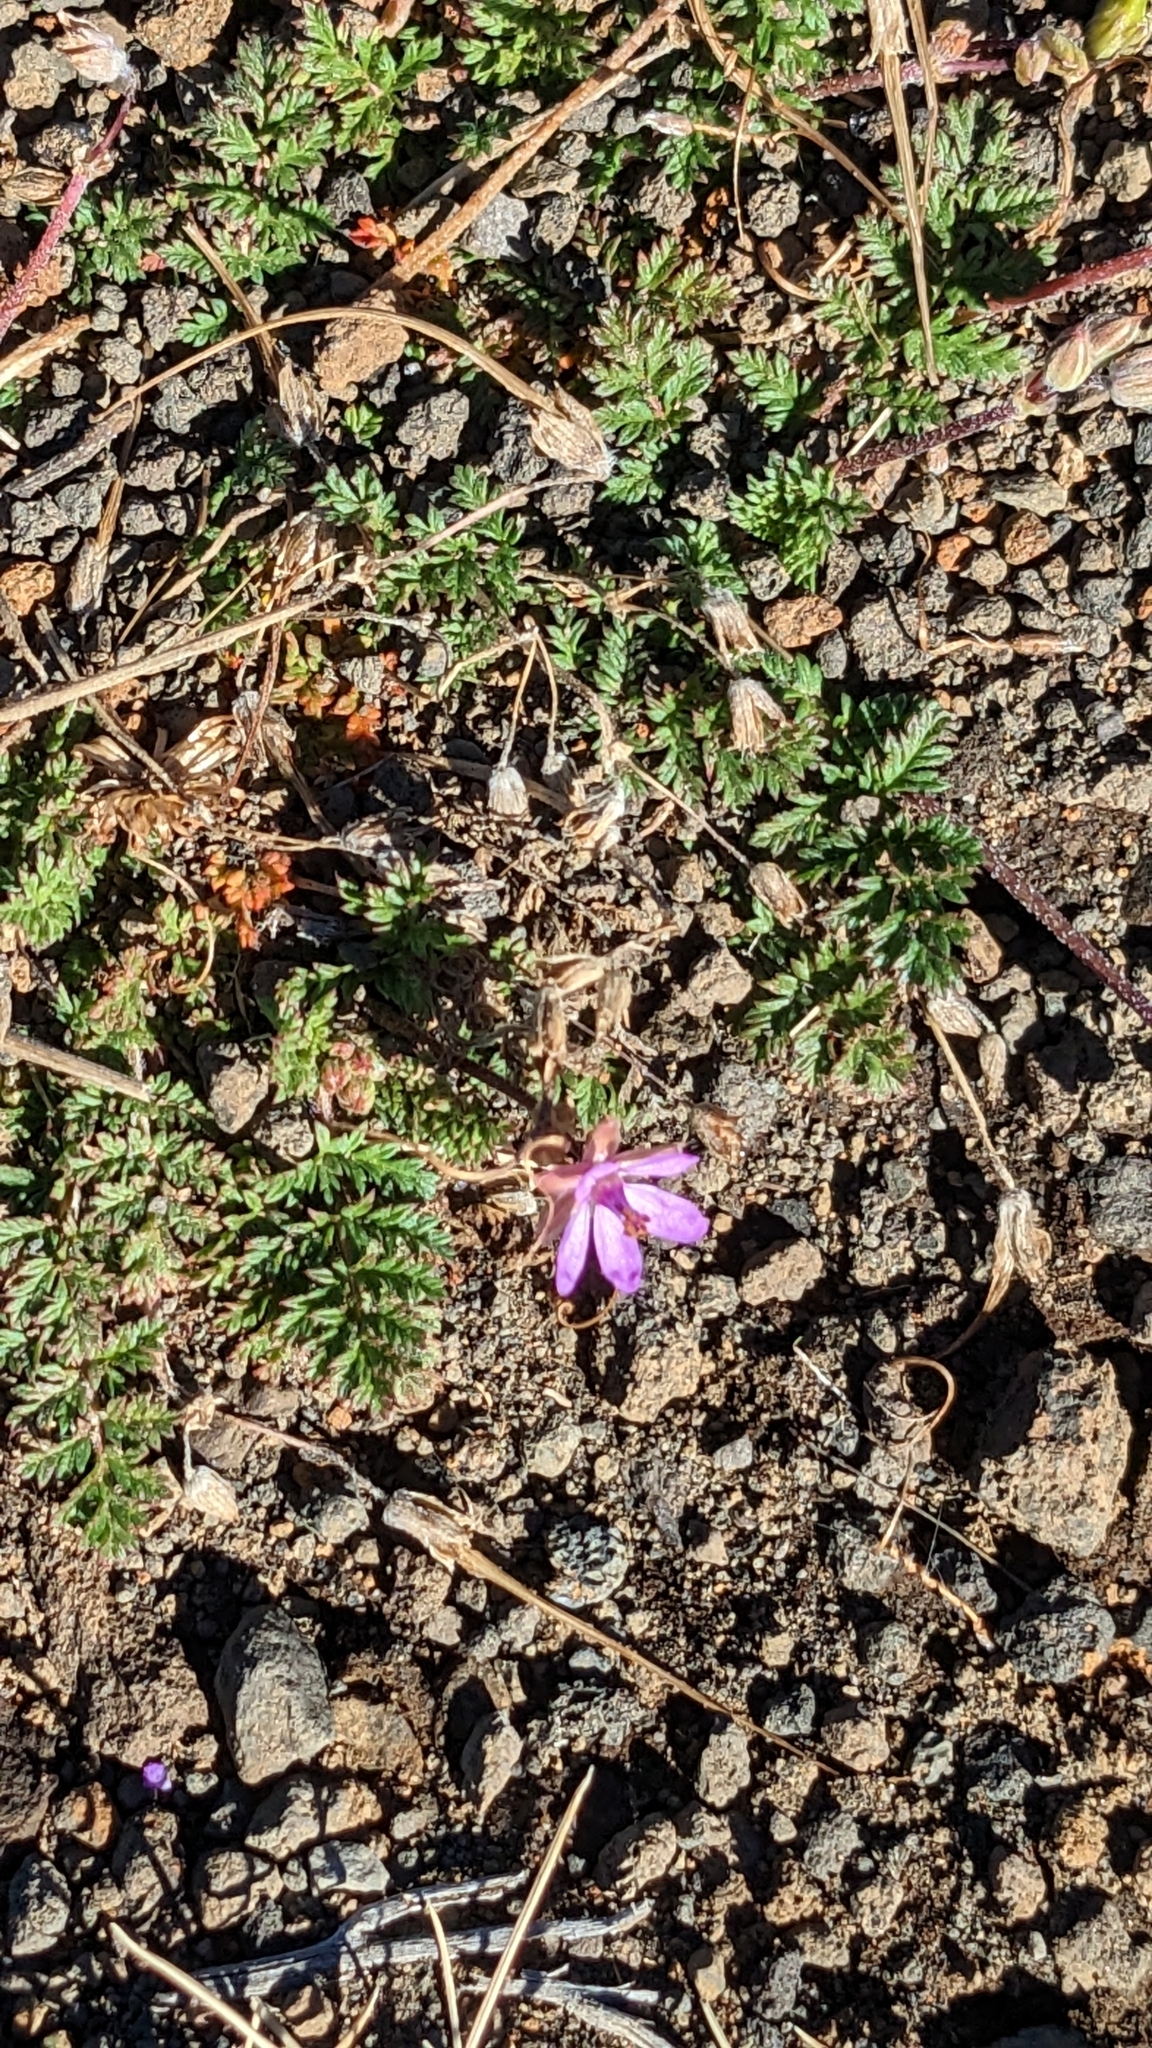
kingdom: Plantae
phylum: Tracheophyta
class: Magnoliopsida
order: Geraniales
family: Geraniaceae
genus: Erodium
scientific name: Erodium cicutarium
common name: Common stork's-bill
